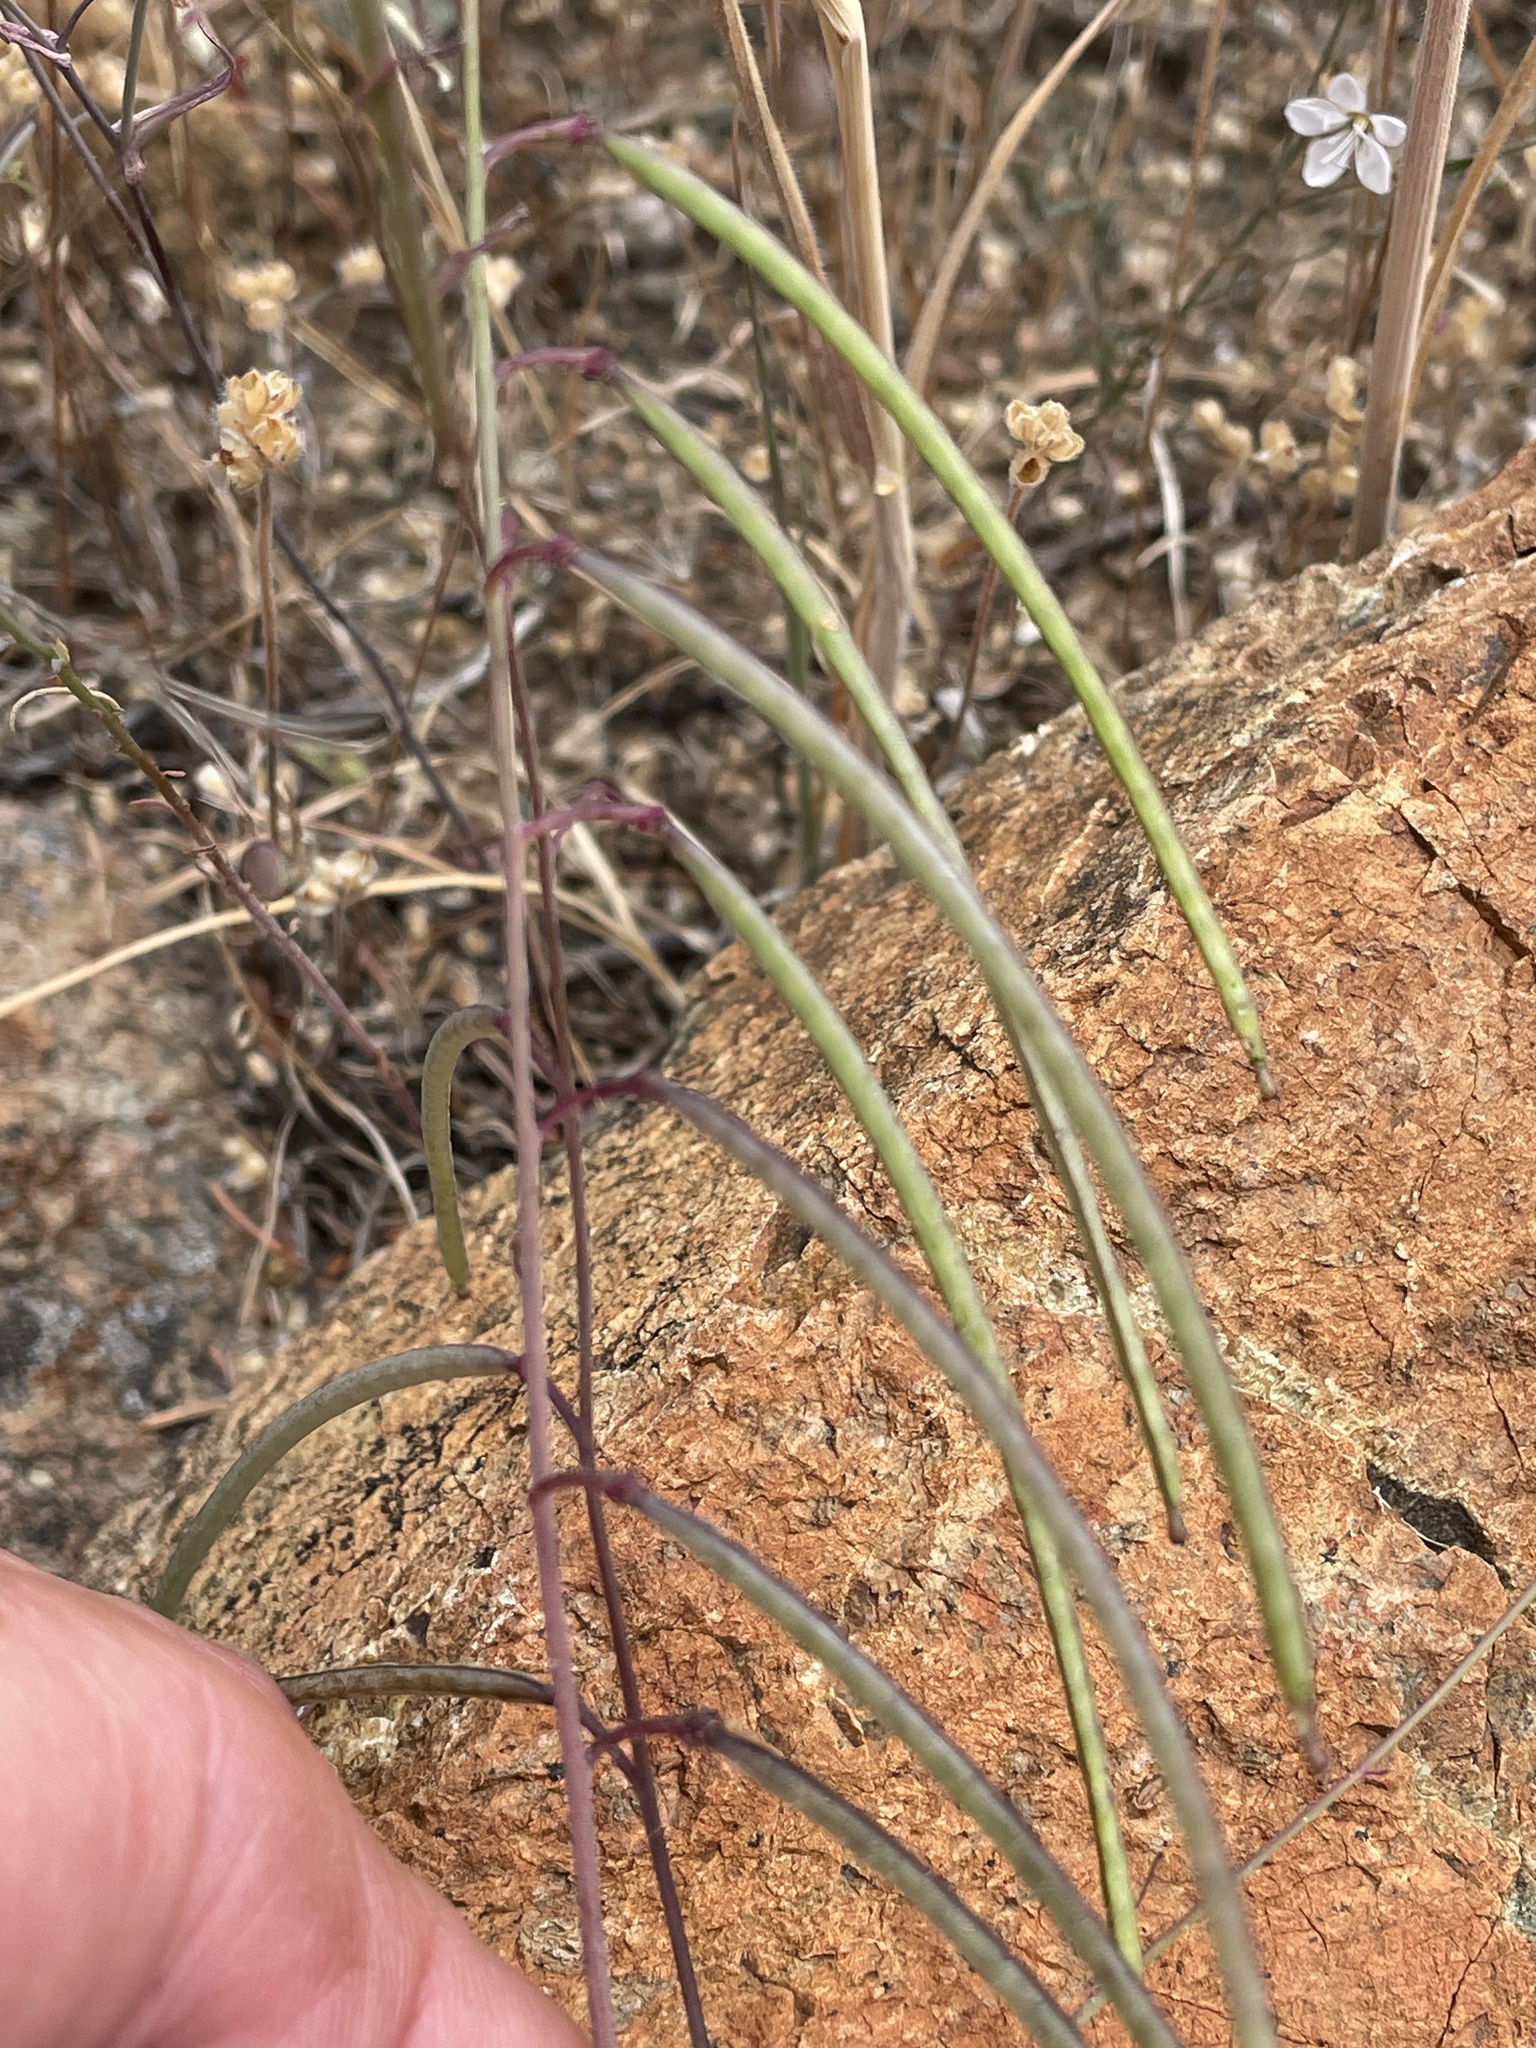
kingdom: Plantae
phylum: Tracheophyta
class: Magnoliopsida
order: Brassicales
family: Brassicaceae
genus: Streptanthus
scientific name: Streptanthus glandulosus
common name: Jewel-flower
